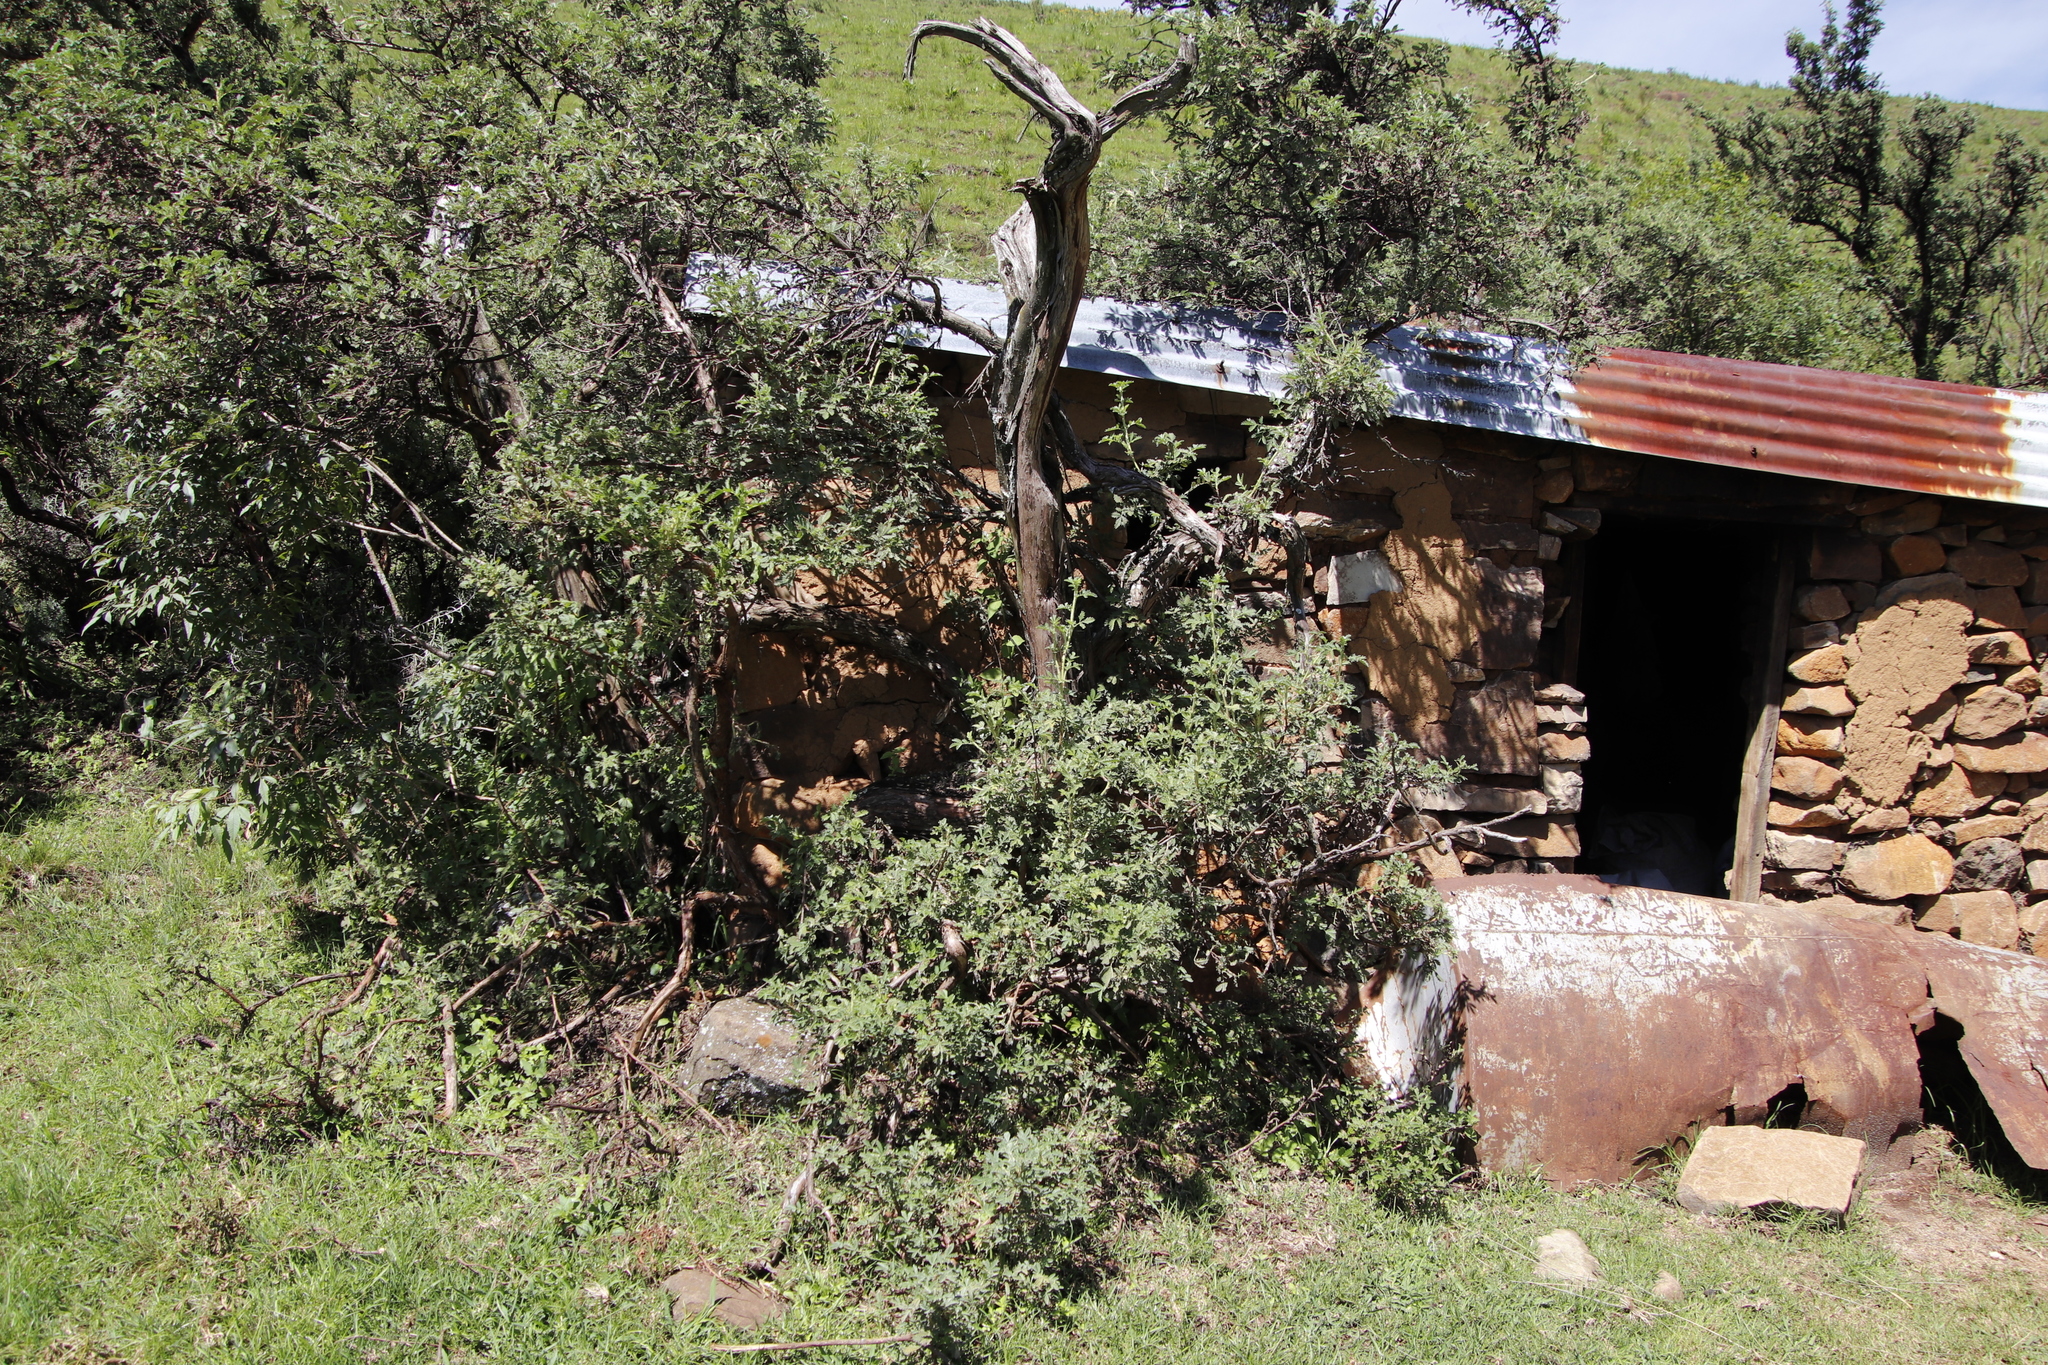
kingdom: Plantae
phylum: Tracheophyta
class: Magnoliopsida
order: Rosales
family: Rosaceae
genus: Leucosidea
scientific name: Leucosidea sericea
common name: Oldwood
